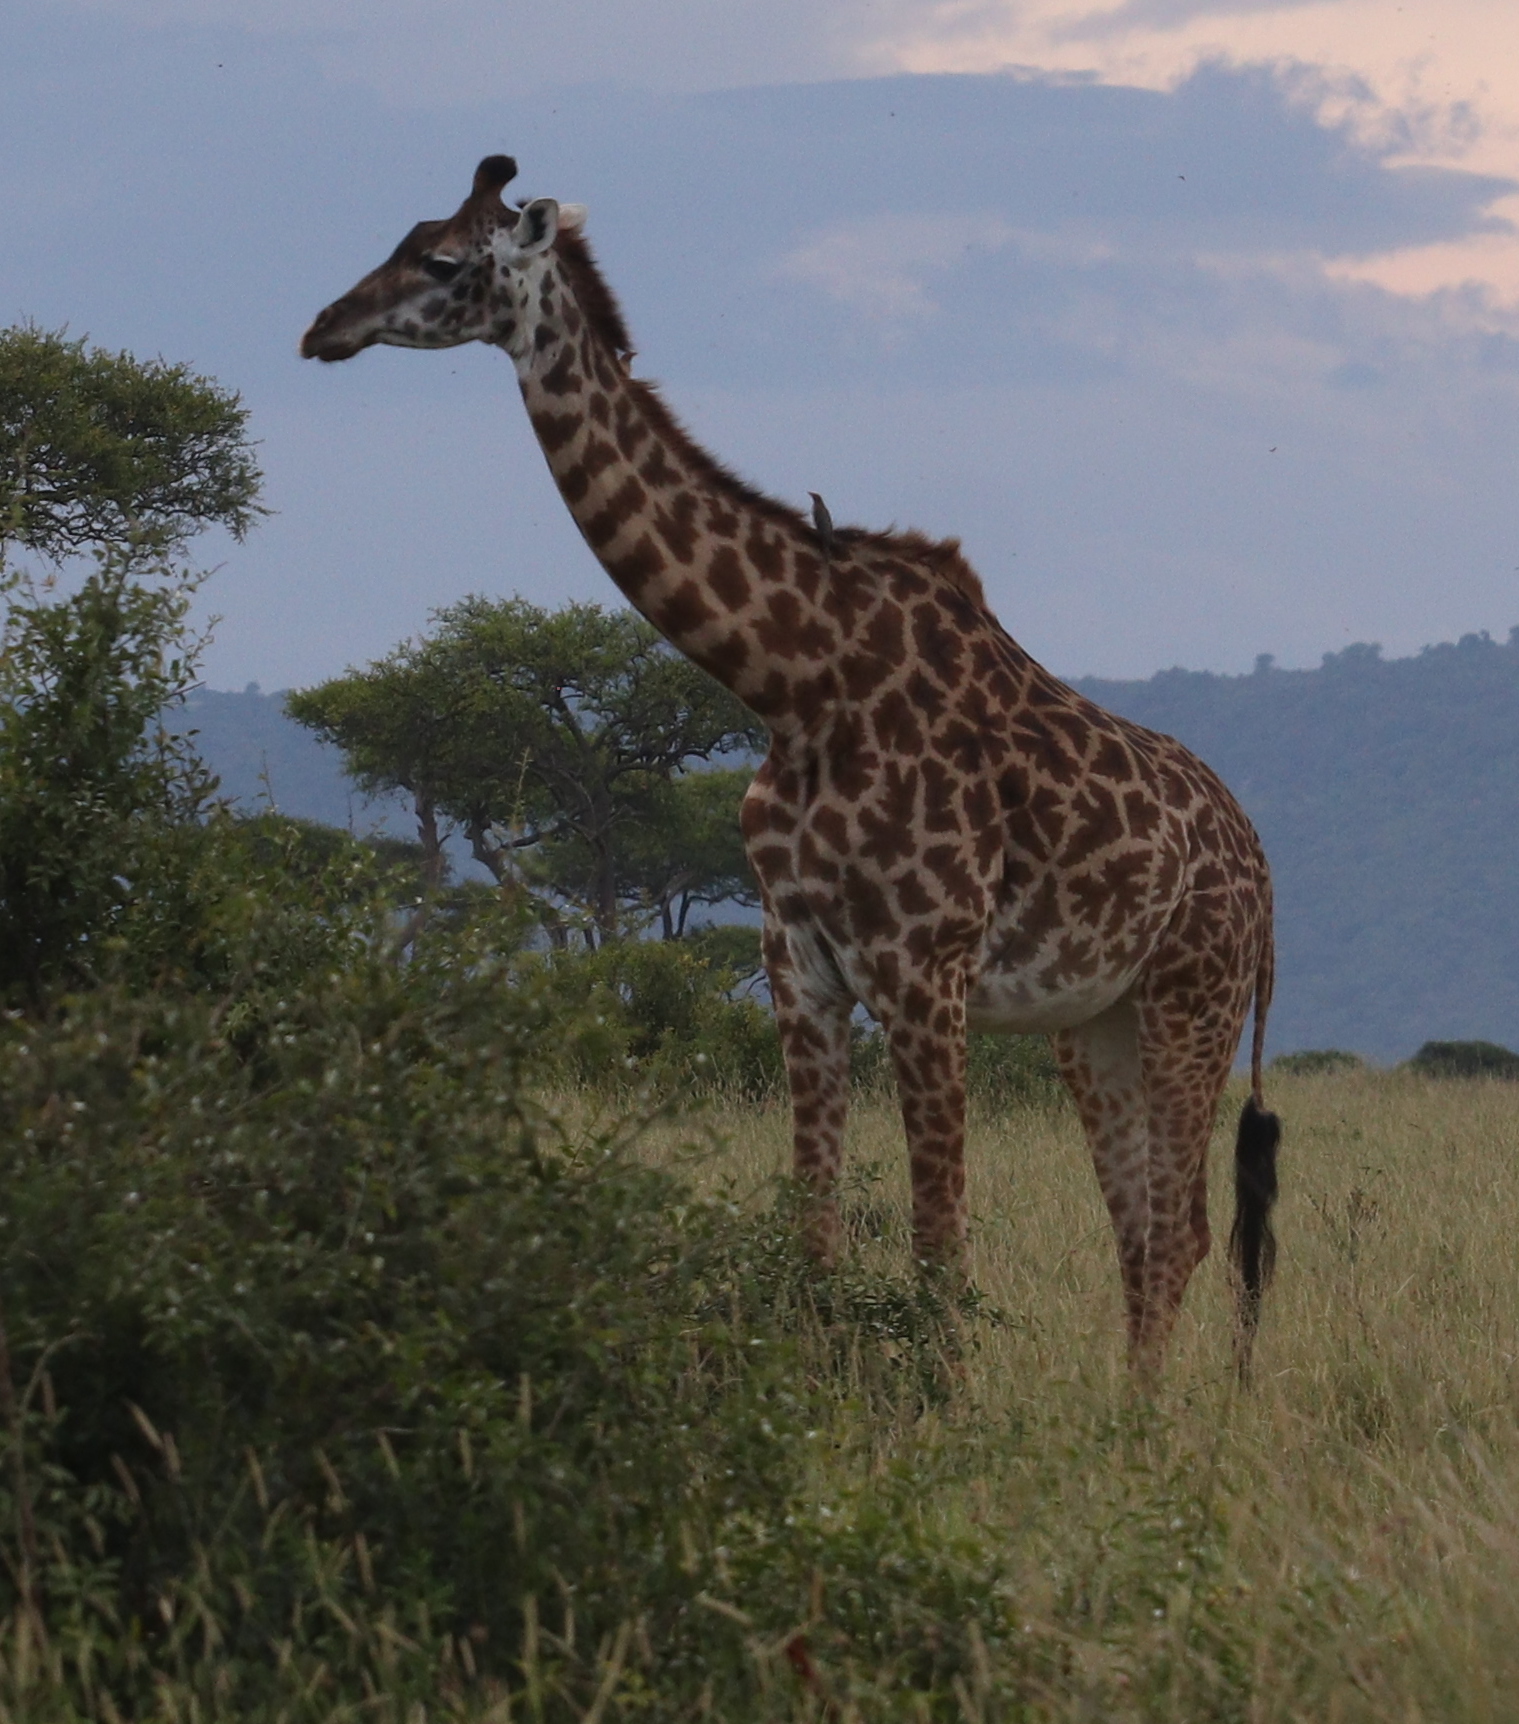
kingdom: Animalia
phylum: Chordata
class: Mammalia
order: Artiodactyla
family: Giraffidae
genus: Giraffa
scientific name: Giraffa tippelskirchi
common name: Masai giraffe
